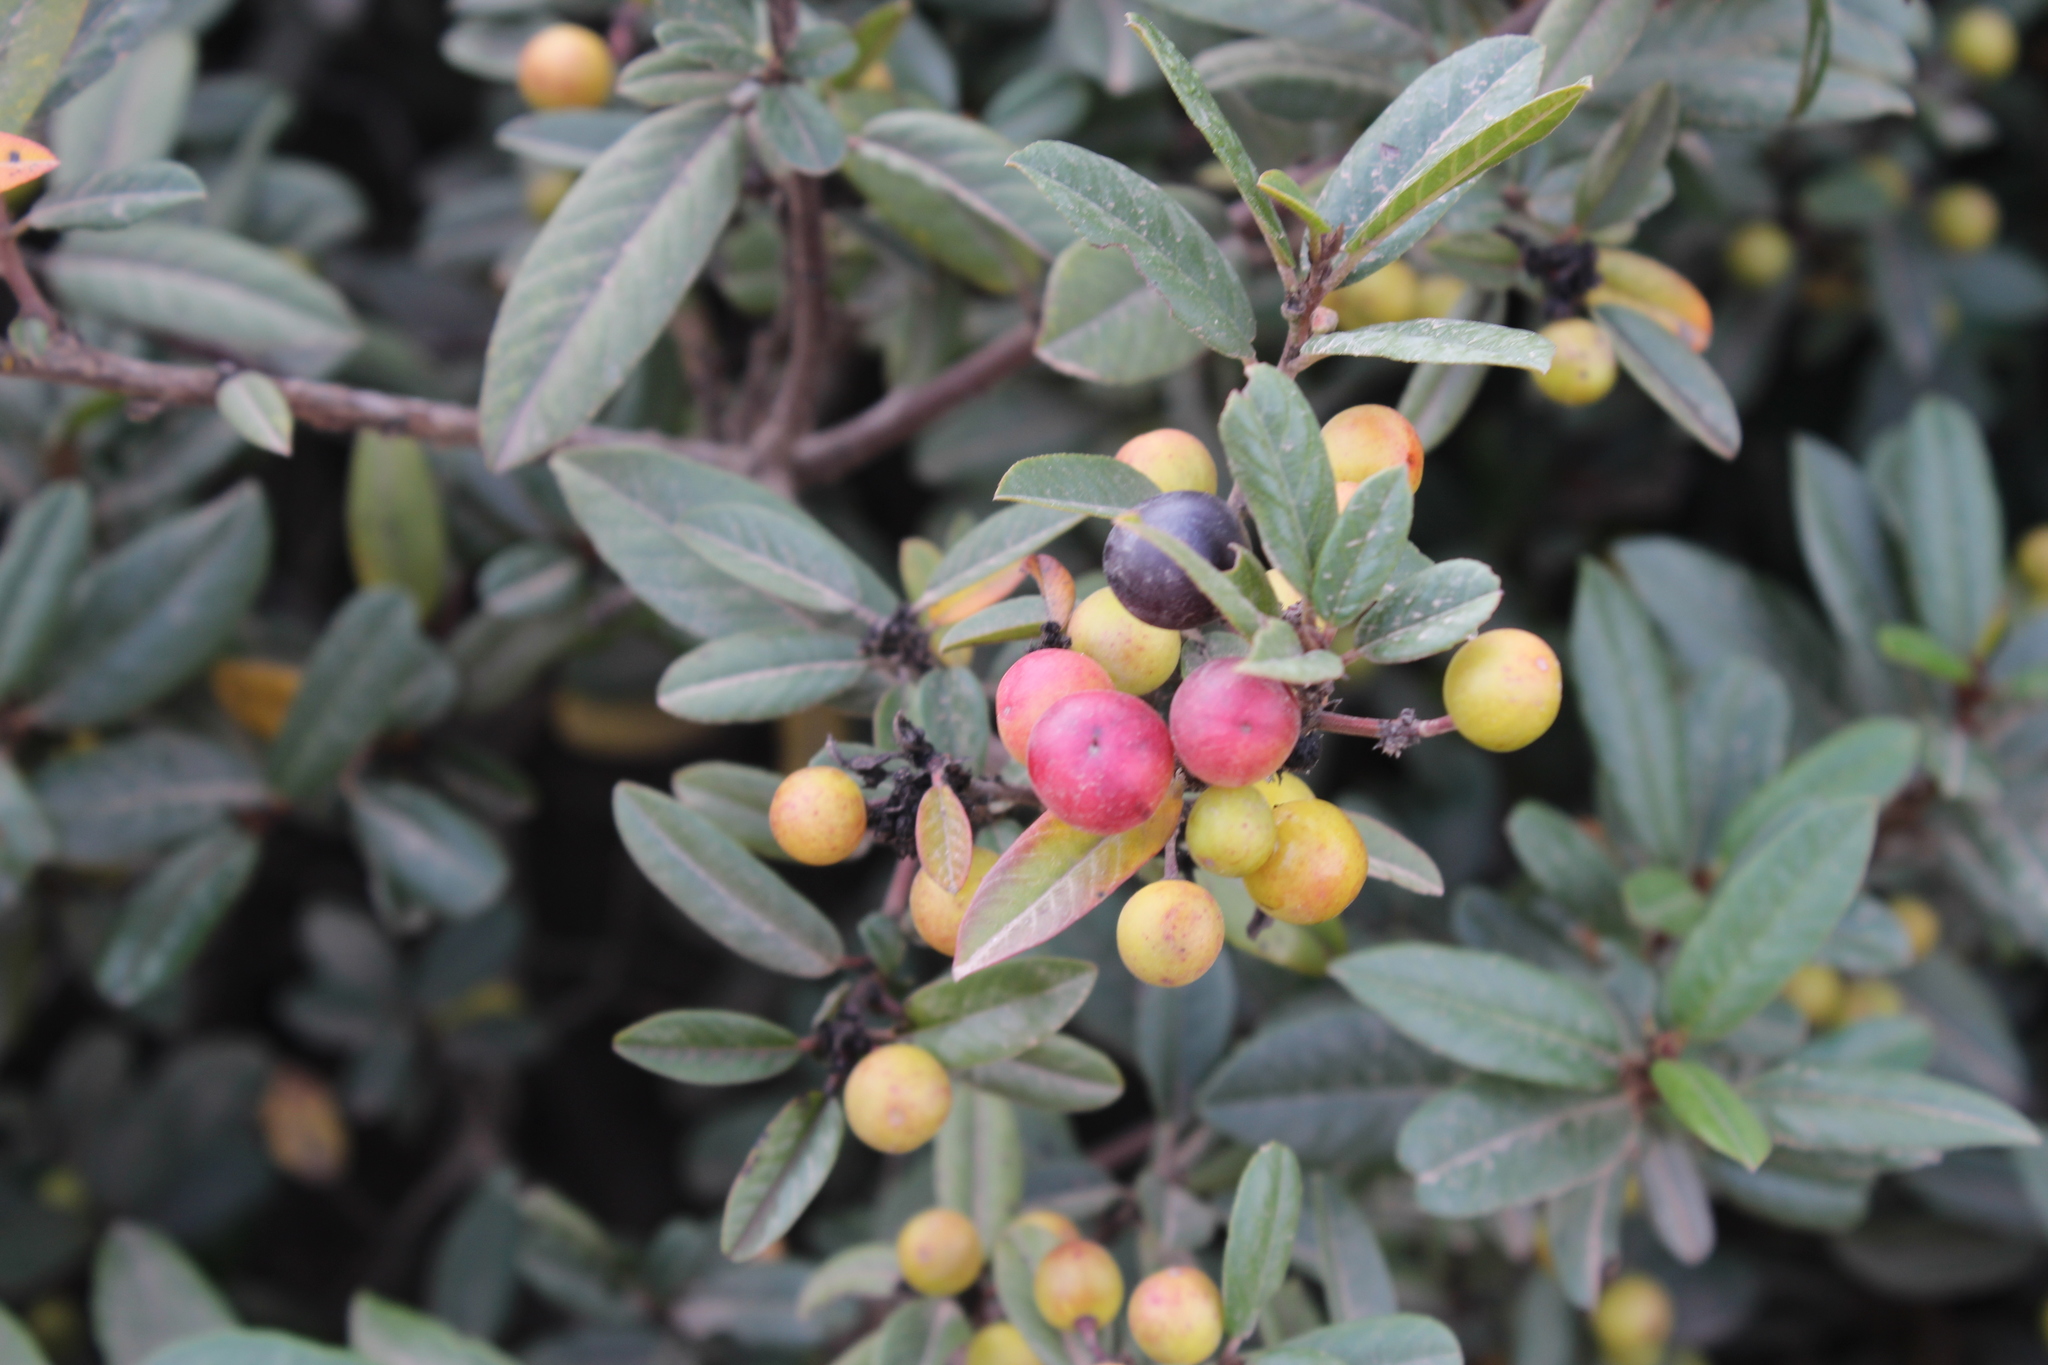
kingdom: Plantae
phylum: Tracheophyta
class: Magnoliopsida
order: Rosales
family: Rhamnaceae
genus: Frangula
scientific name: Frangula californica
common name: California buckthorn
